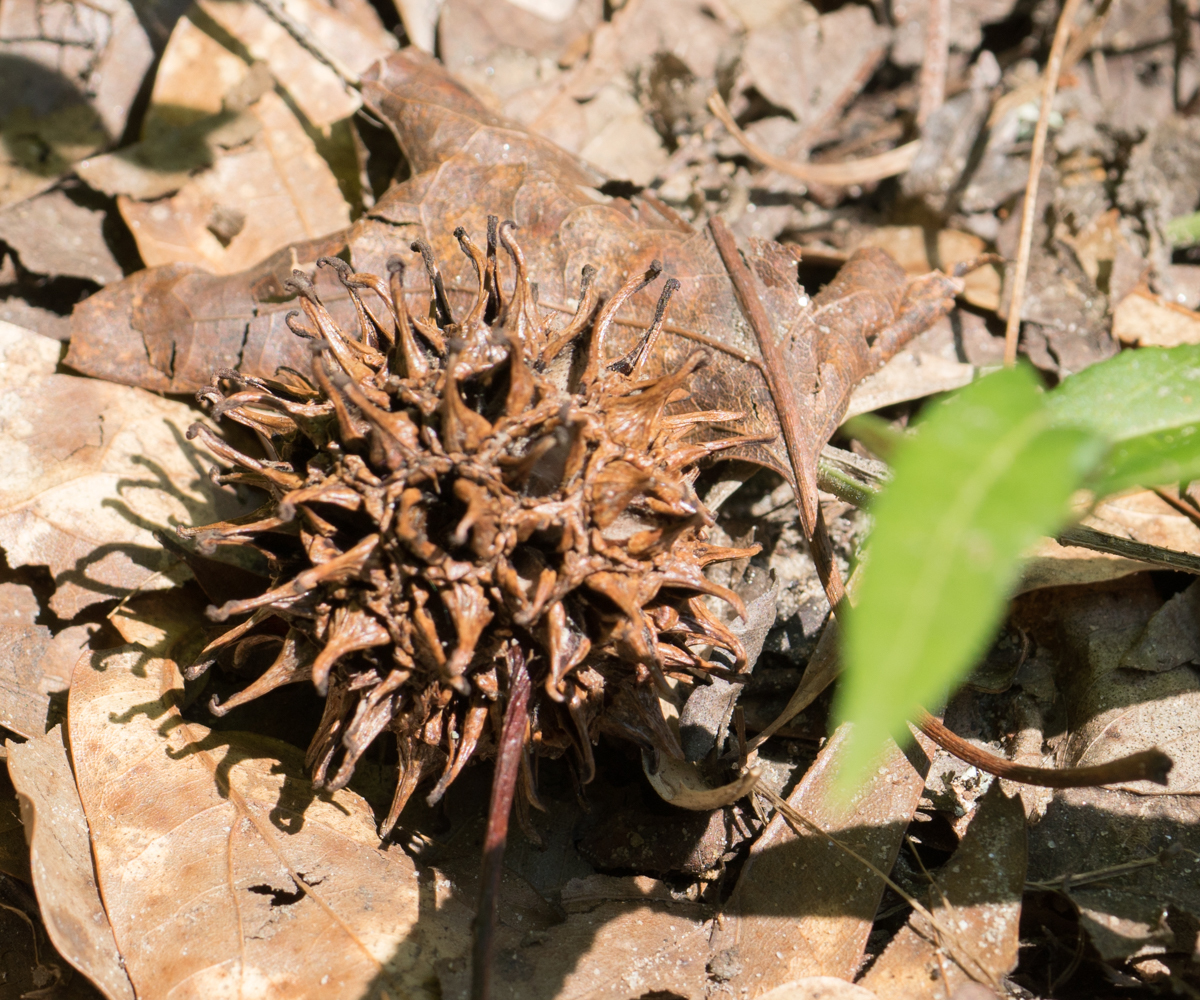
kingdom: Plantae
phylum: Tracheophyta
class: Magnoliopsida
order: Saxifragales
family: Altingiaceae
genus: Liquidambar
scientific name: Liquidambar styraciflua
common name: Sweet gum
